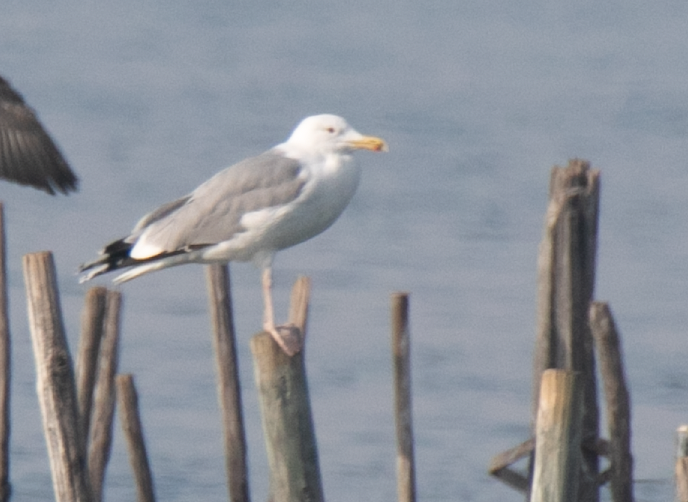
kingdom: Animalia
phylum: Chordata
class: Aves
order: Charadriiformes
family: Laridae
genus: Larus
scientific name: Larus cachinnans
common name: Caspian gull
